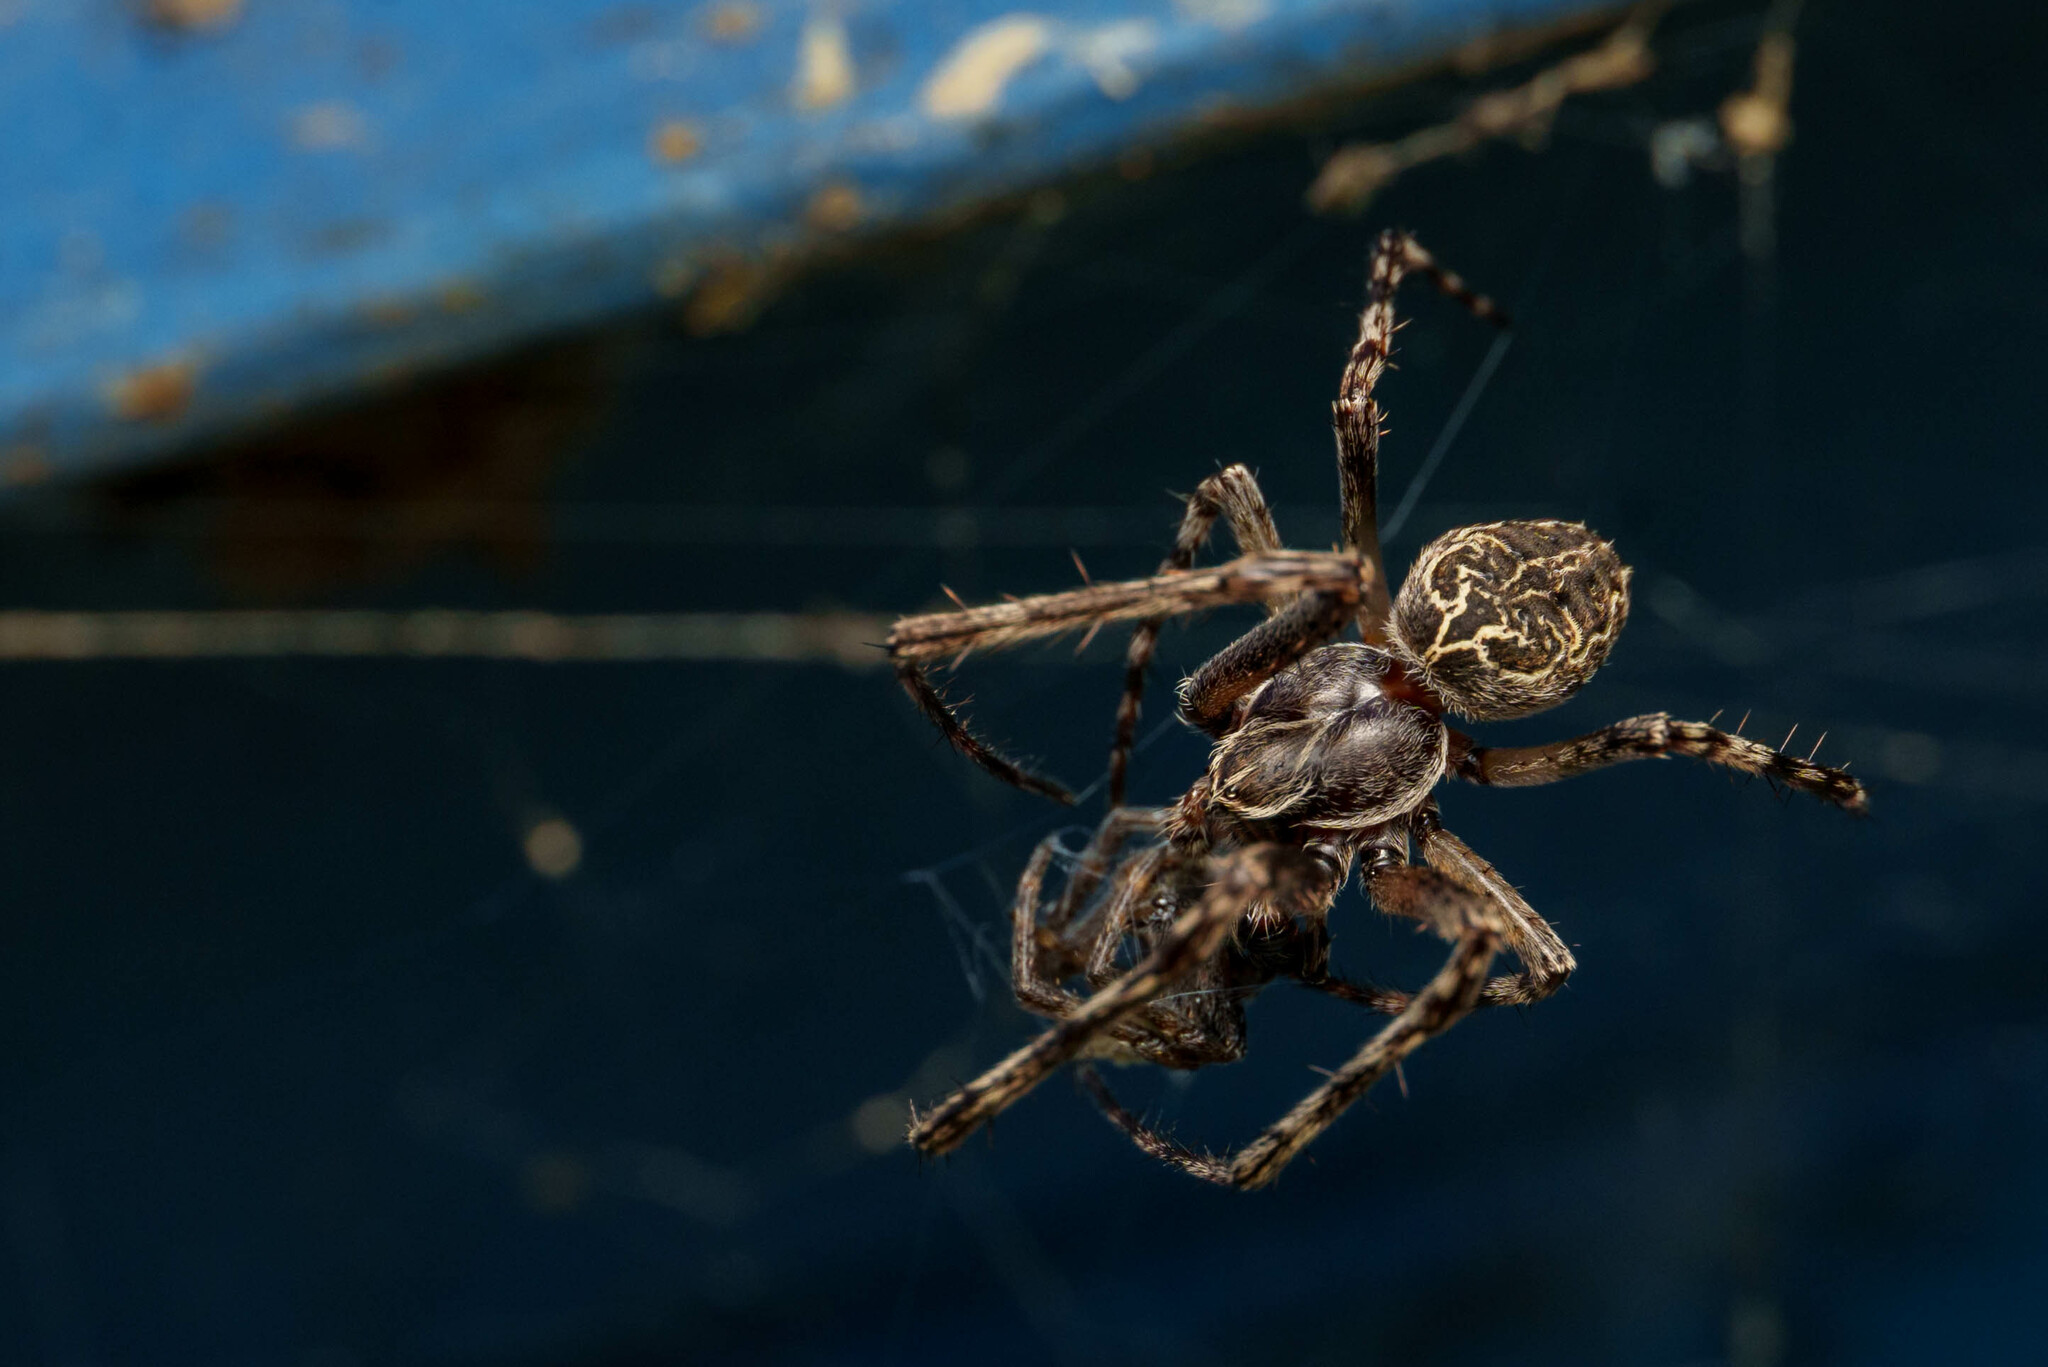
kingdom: Animalia
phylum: Arthropoda
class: Arachnida
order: Araneae
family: Araneidae
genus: Larinioides
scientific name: Larinioides sclopetarius
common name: Bridge orbweaver
